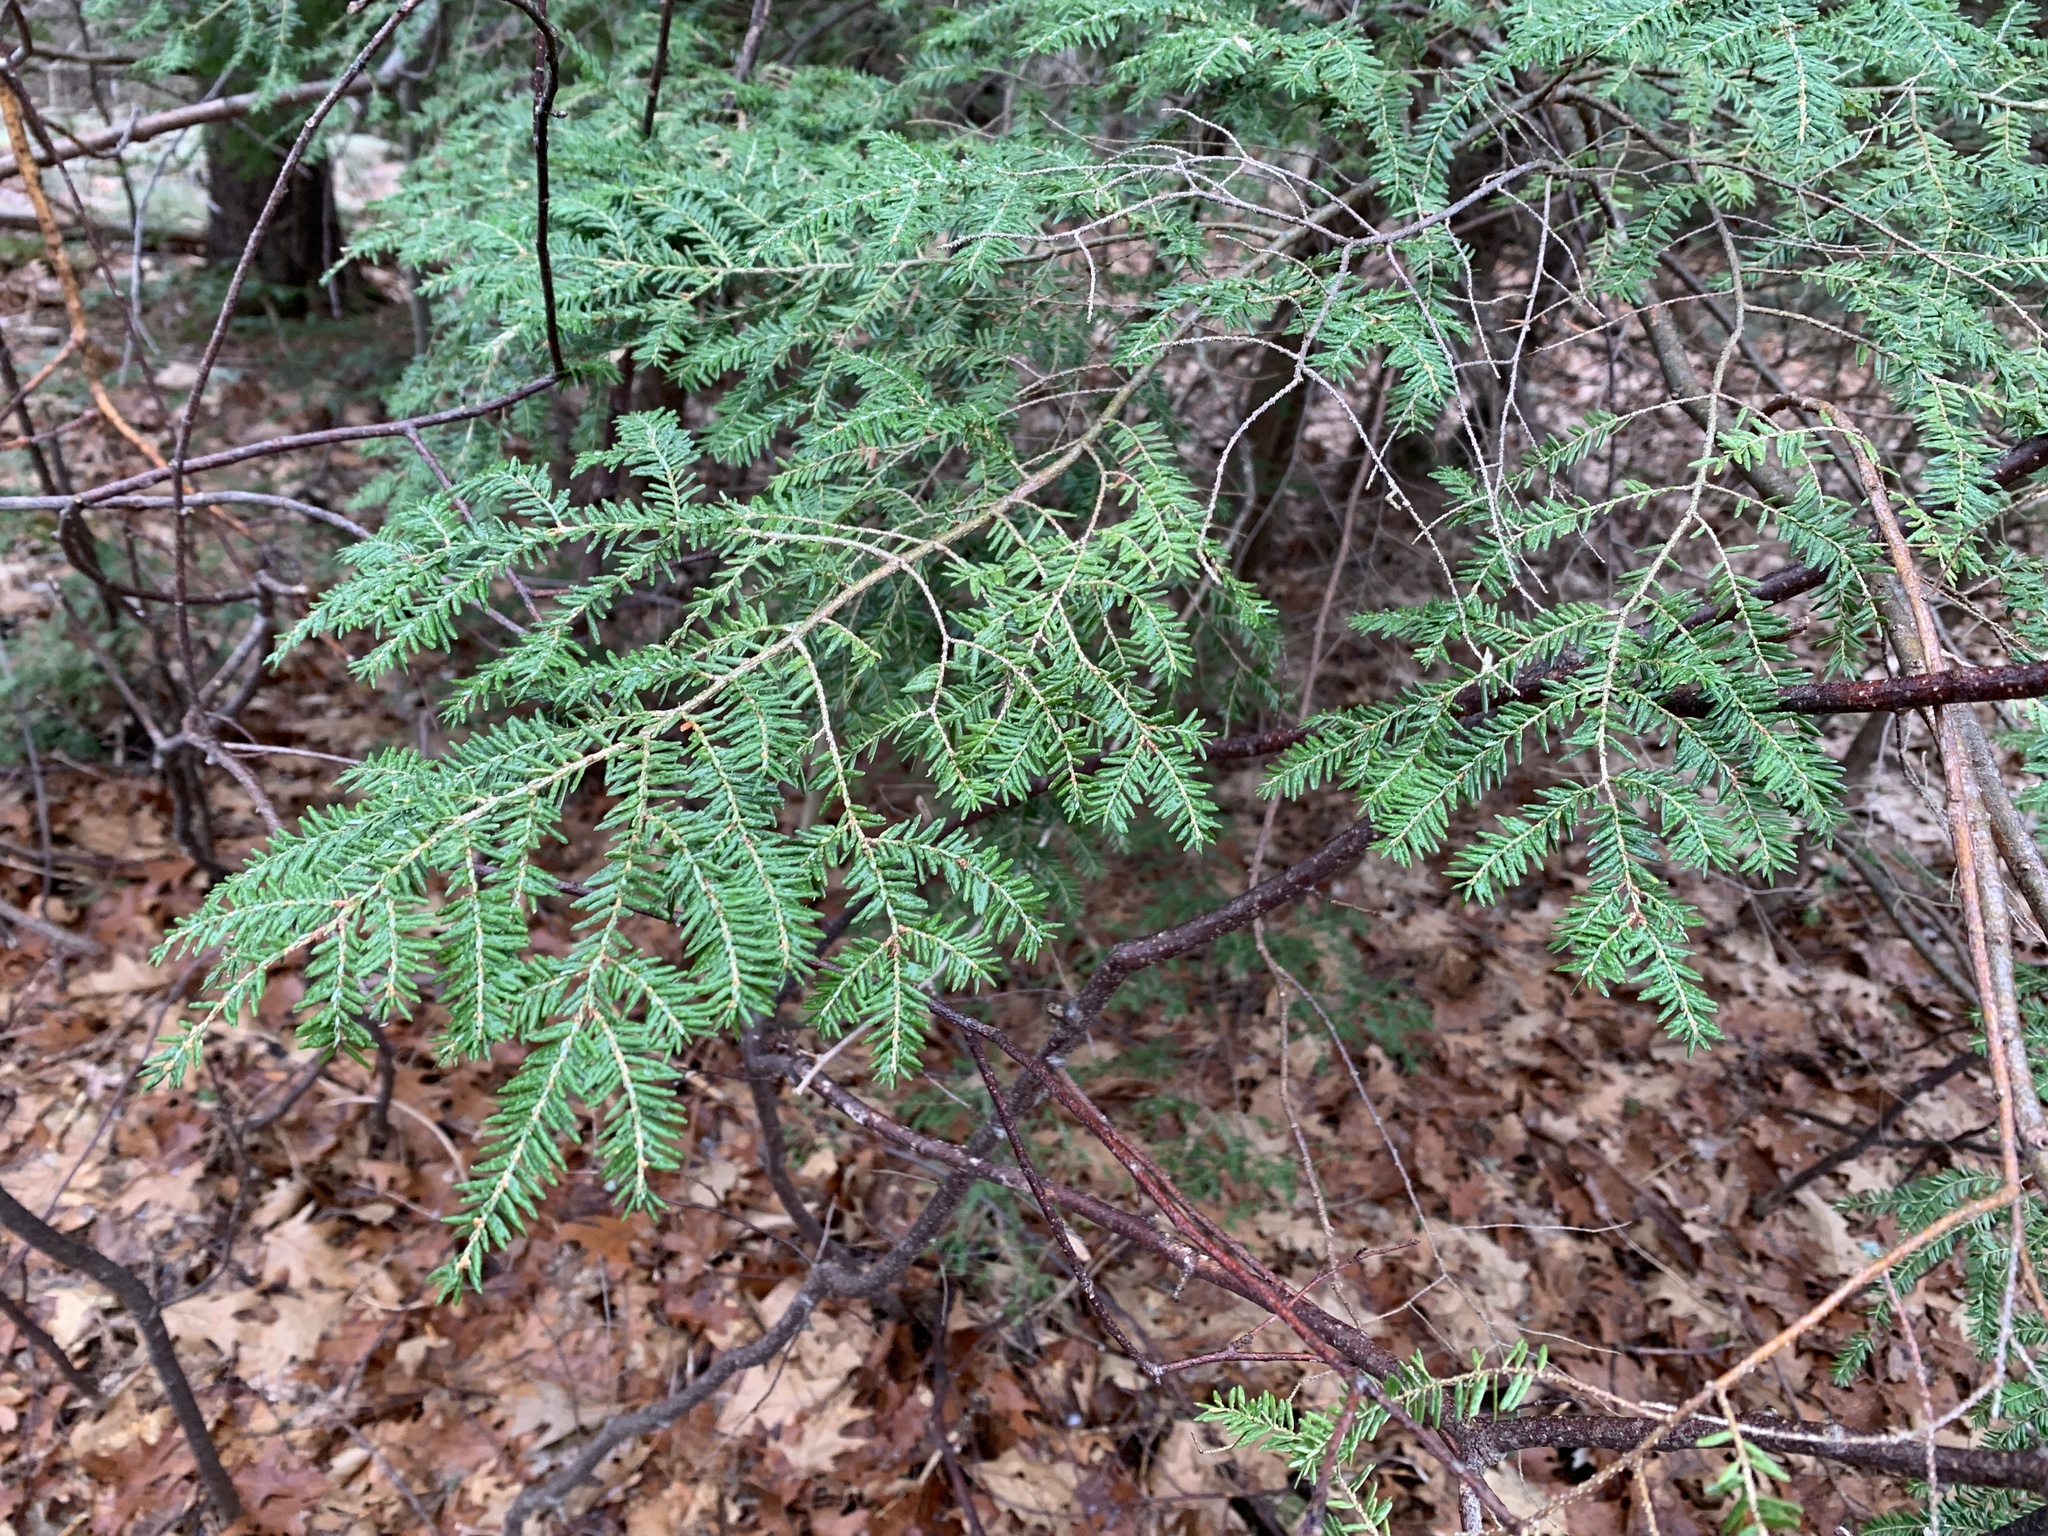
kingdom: Plantae
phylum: Tracheophyta
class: Pinopsida
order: Pinales
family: Pinaceae
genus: Tsuga
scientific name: Tsuga canadensis
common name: Eastern hemlock
